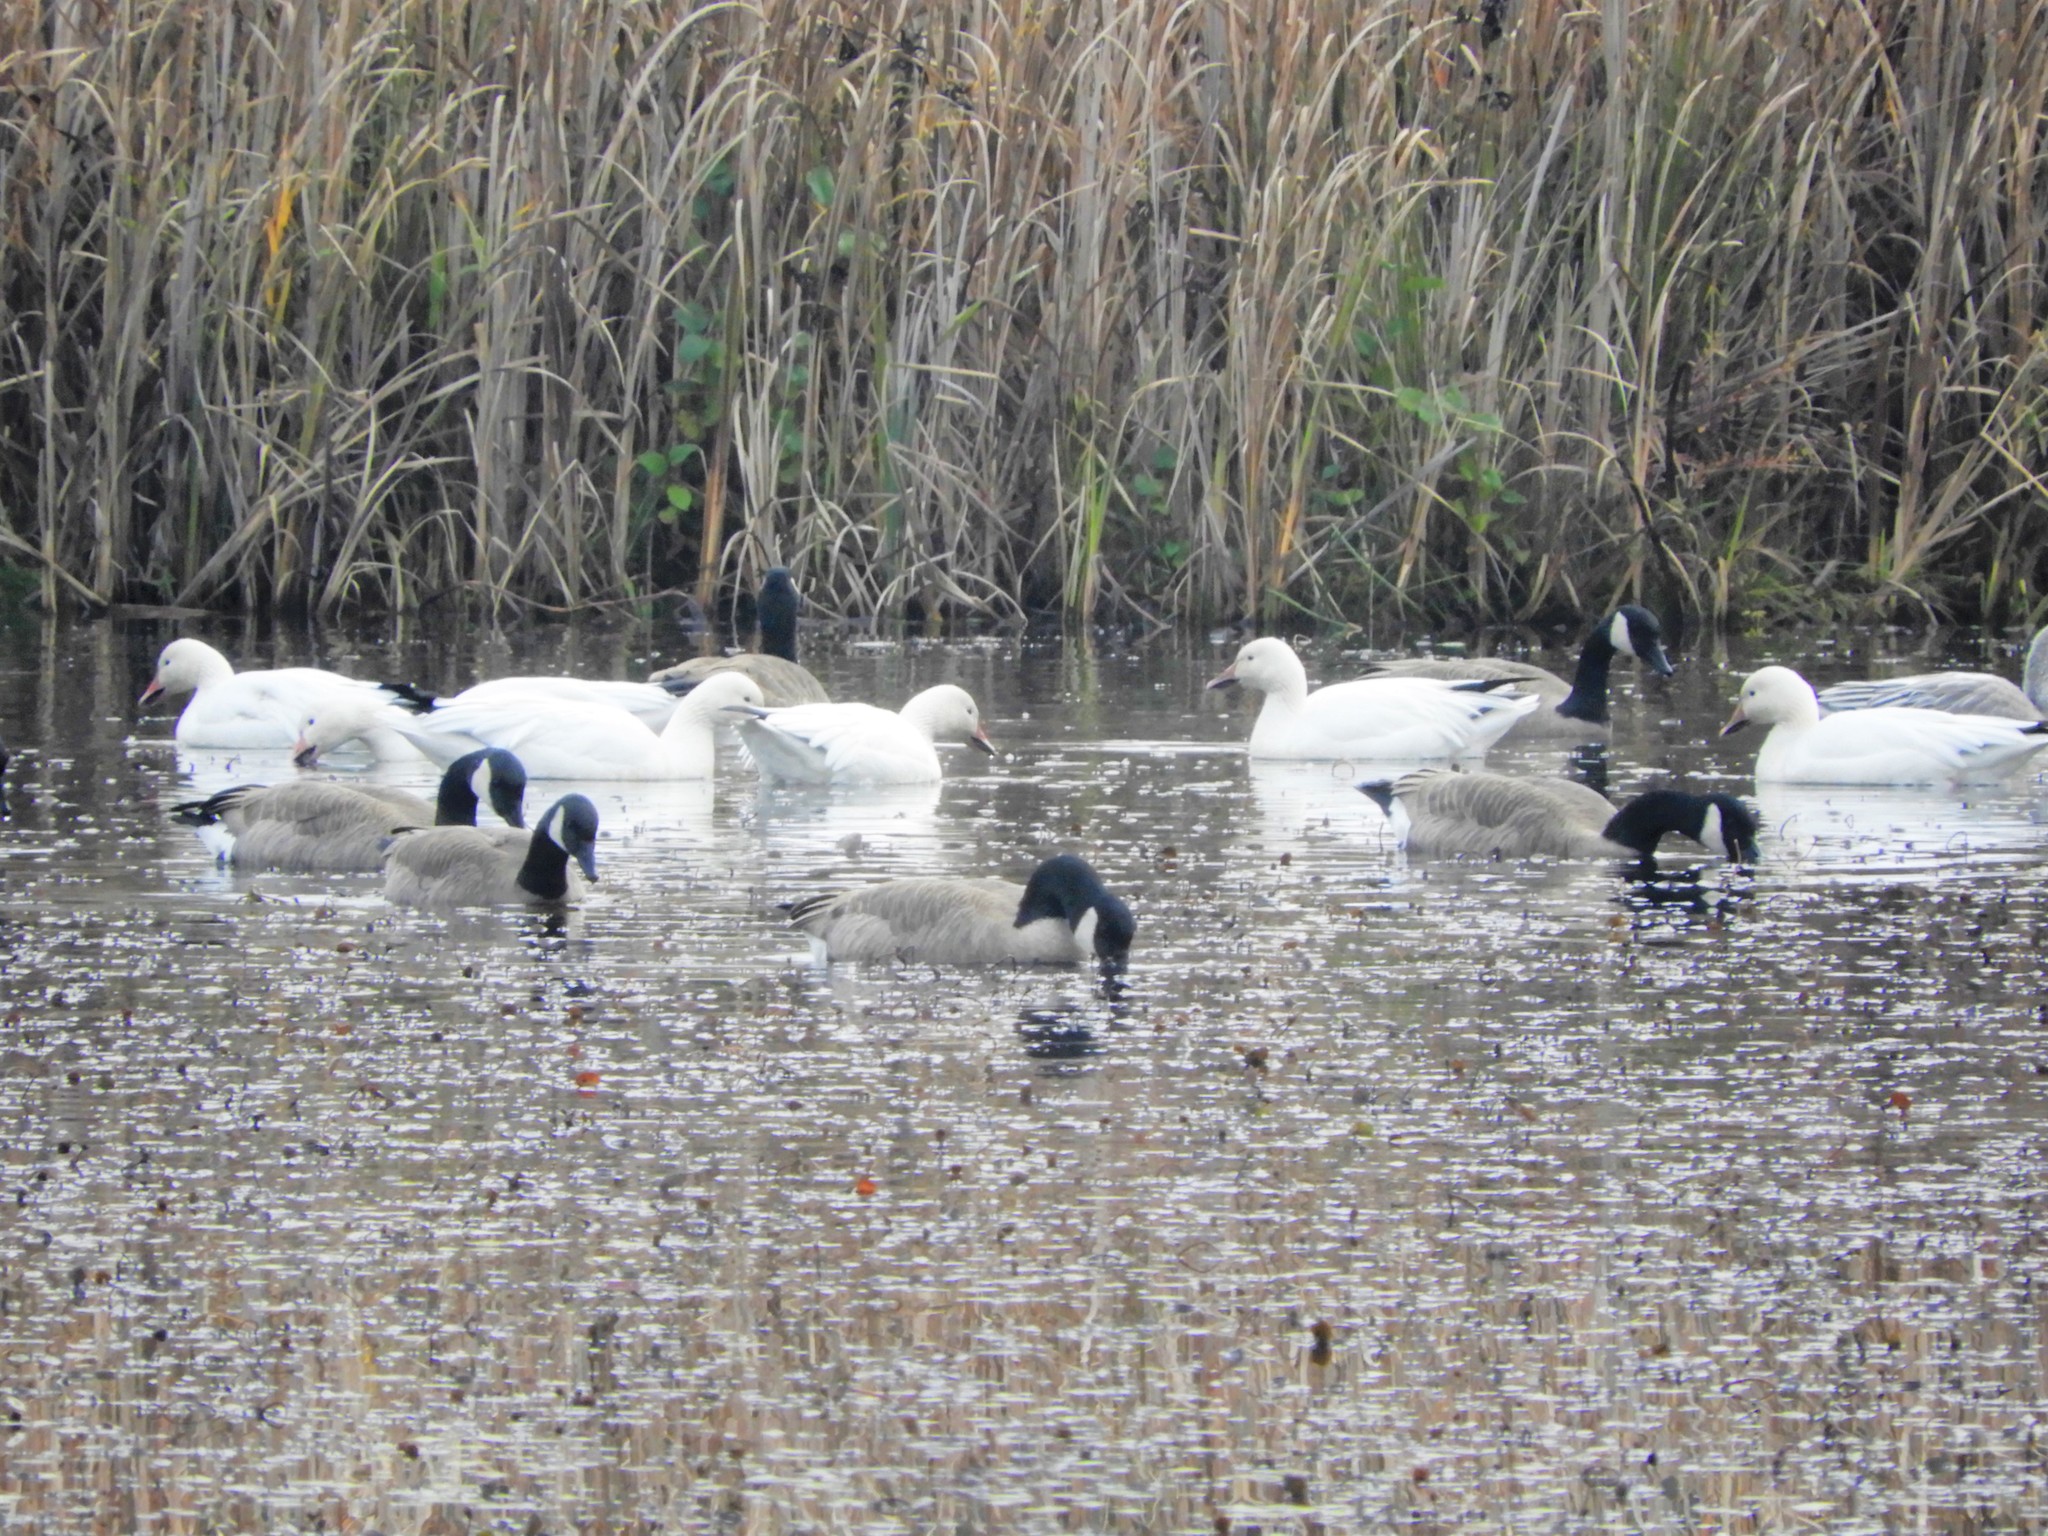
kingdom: Animalia
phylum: Chordata
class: Aves
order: Anseriformes
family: Anatidae
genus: Anser
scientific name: Anser caerulescens
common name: Snow goose
